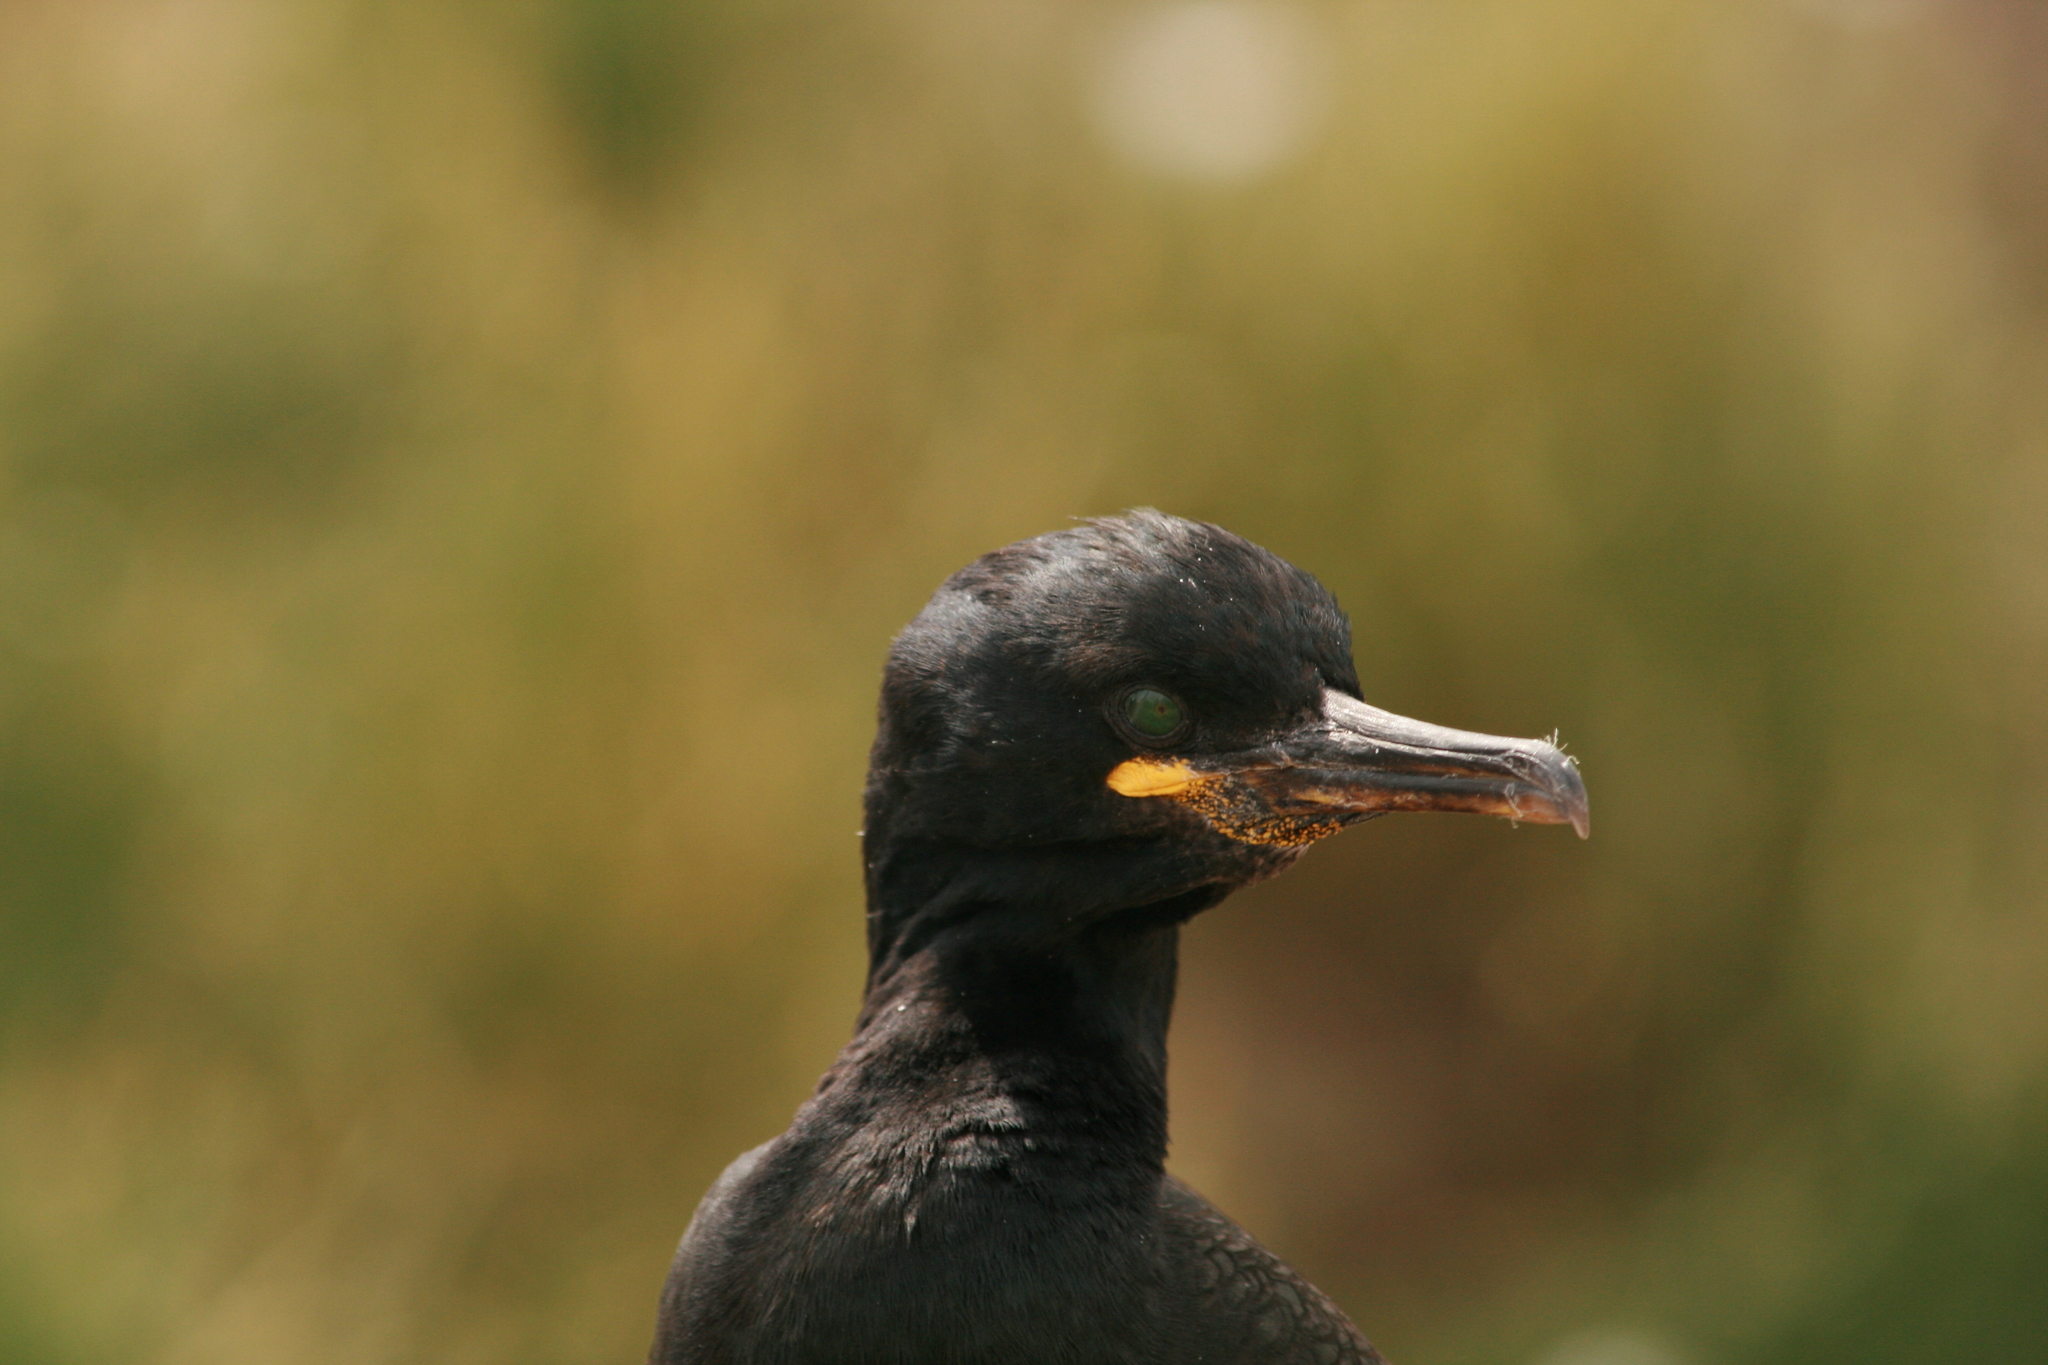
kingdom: Animalia
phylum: Chordata
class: Aves
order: Suliformes
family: Phalacrocoracidae
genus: Phalacrocorax
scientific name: Phalacrocorax aristotelis
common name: European shag
